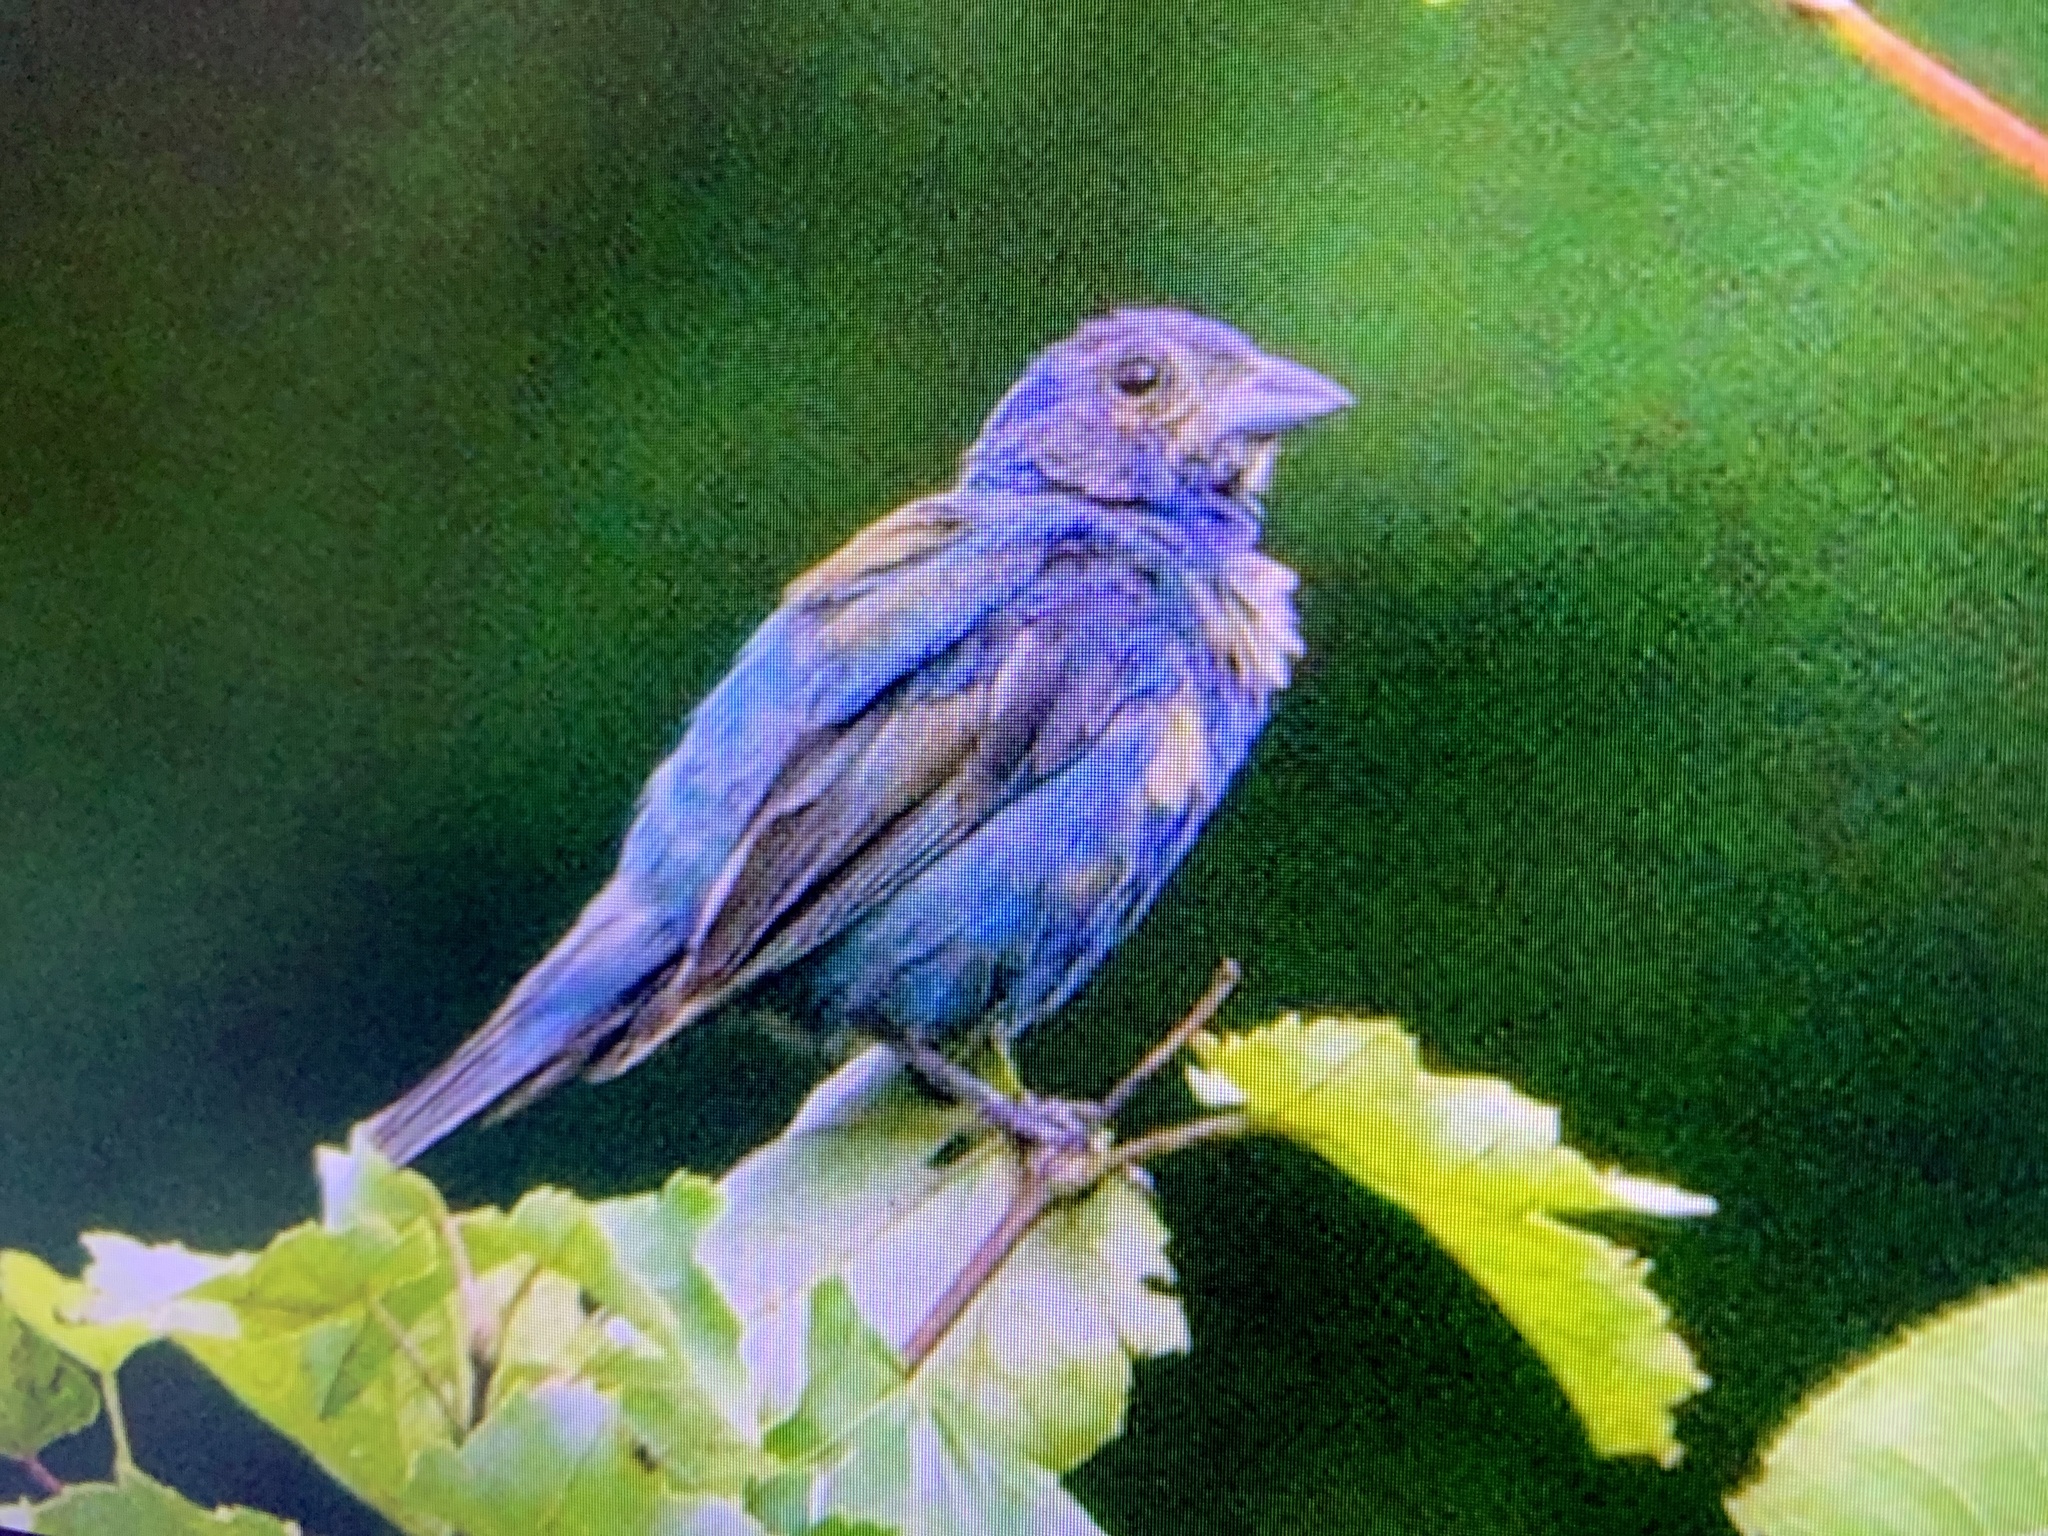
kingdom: Animalia
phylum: Chordata
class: Aves
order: Passeriformes
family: Cardinalidae
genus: Passerina
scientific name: Passerina cyanea
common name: Indigo bunting
